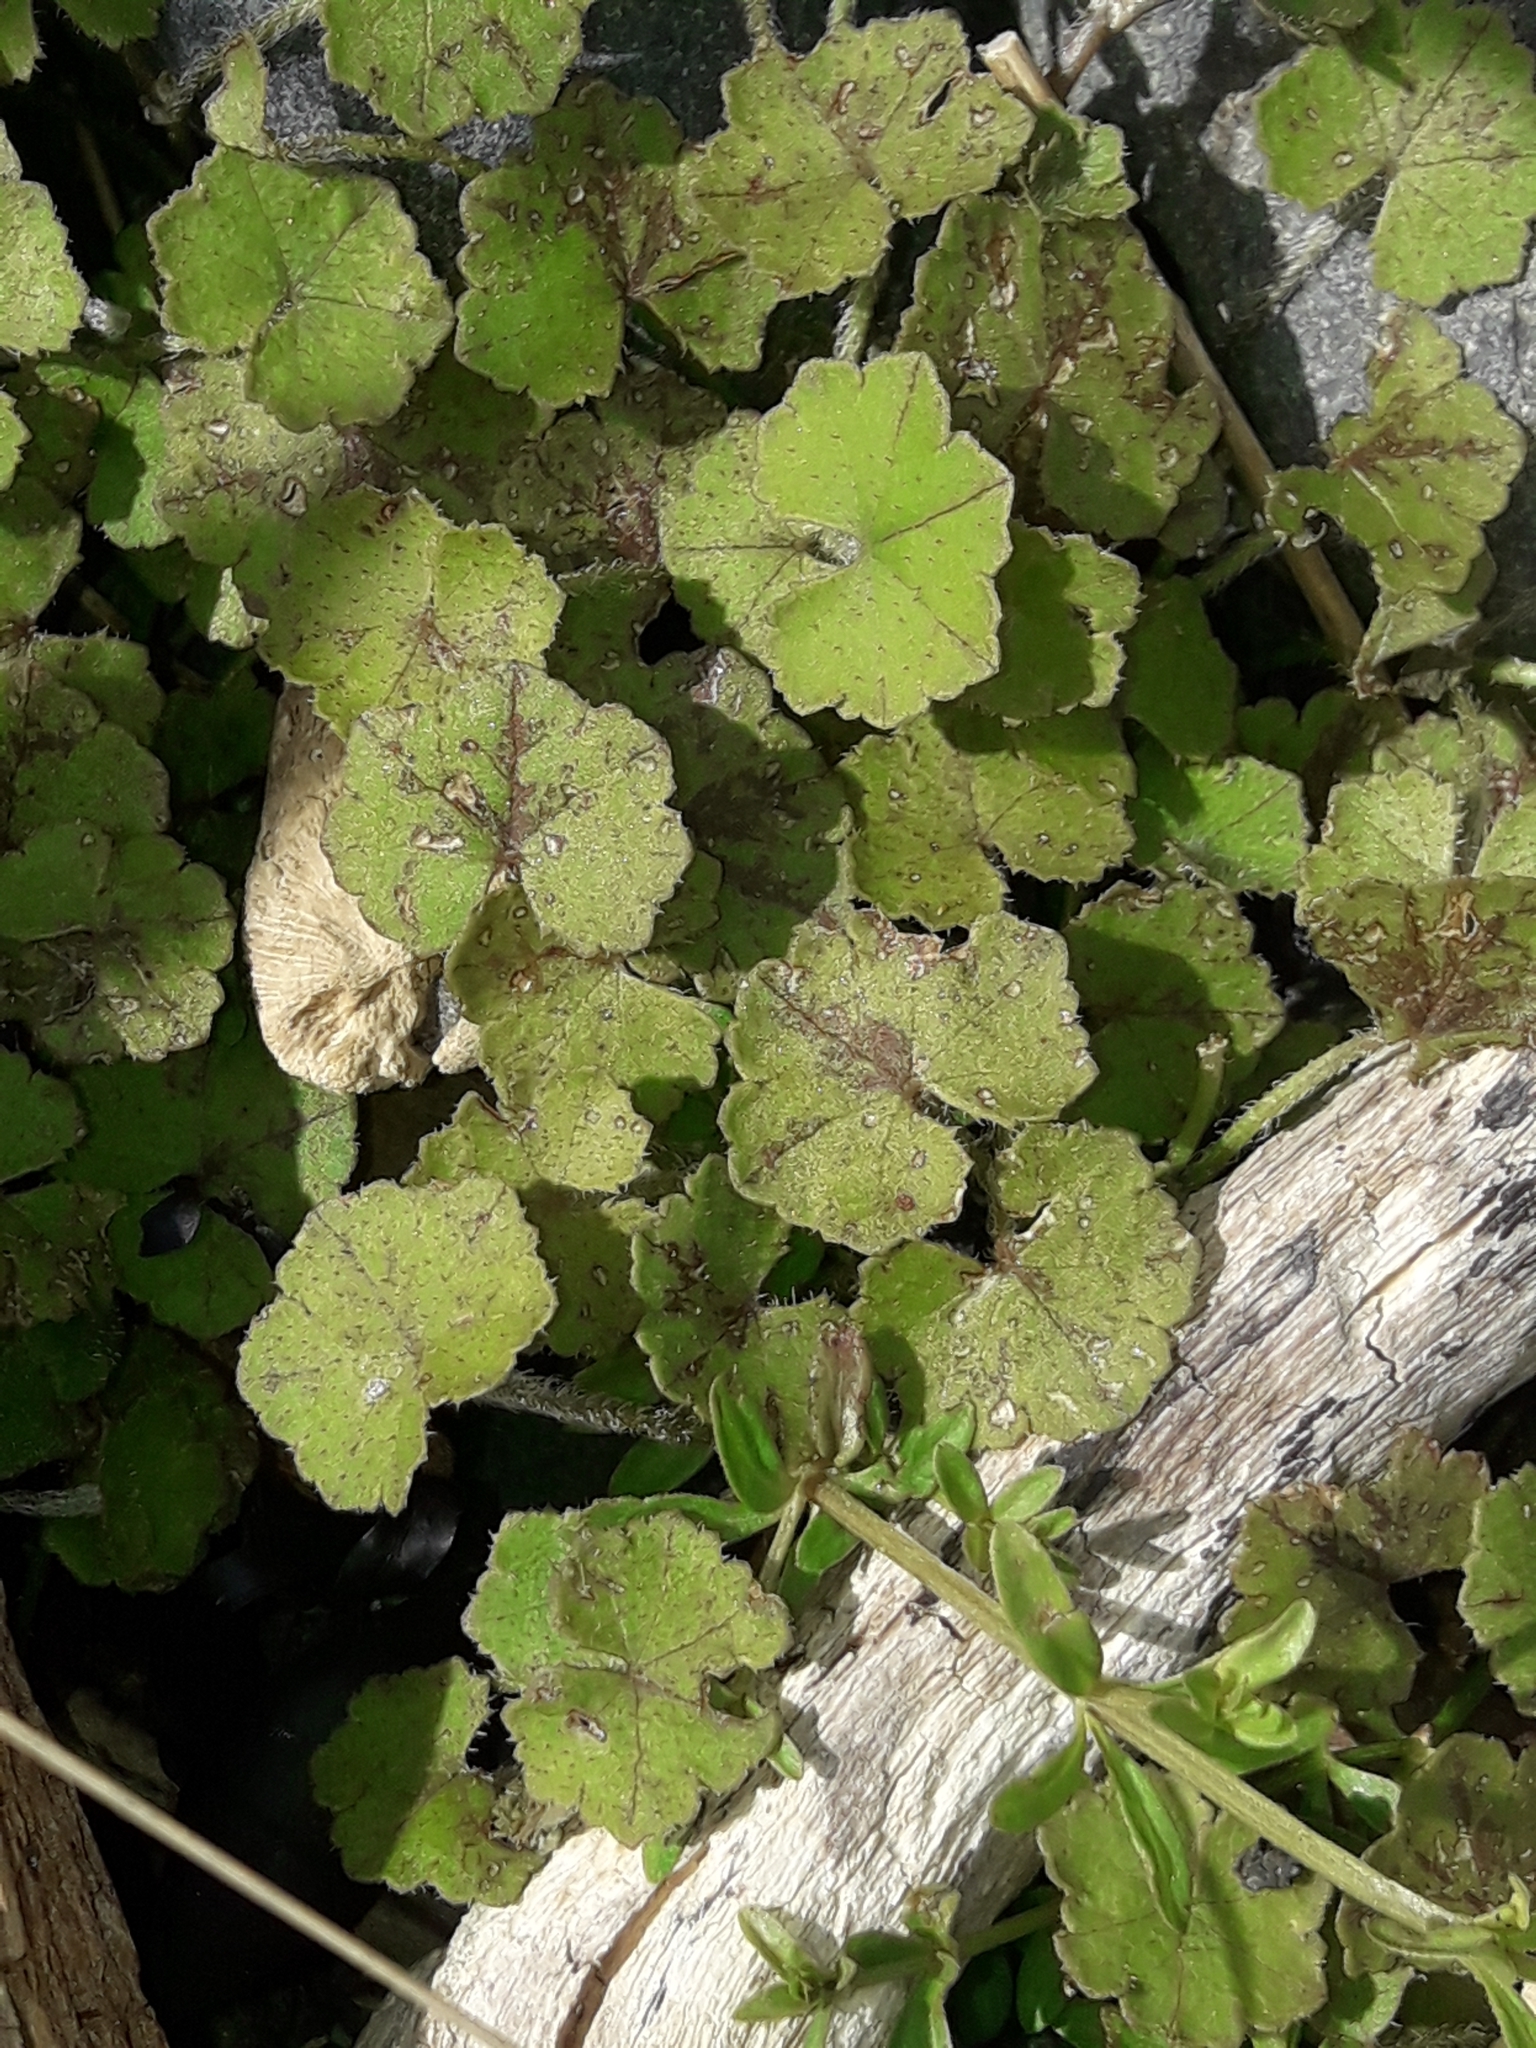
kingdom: Plantae
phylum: Tracheophyta
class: Magnoliopsida
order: Apiales
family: Araliaceae
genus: Hydrocotyle
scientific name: Hydrocotyle novae-zeelandiae
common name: New zealand pennywort
